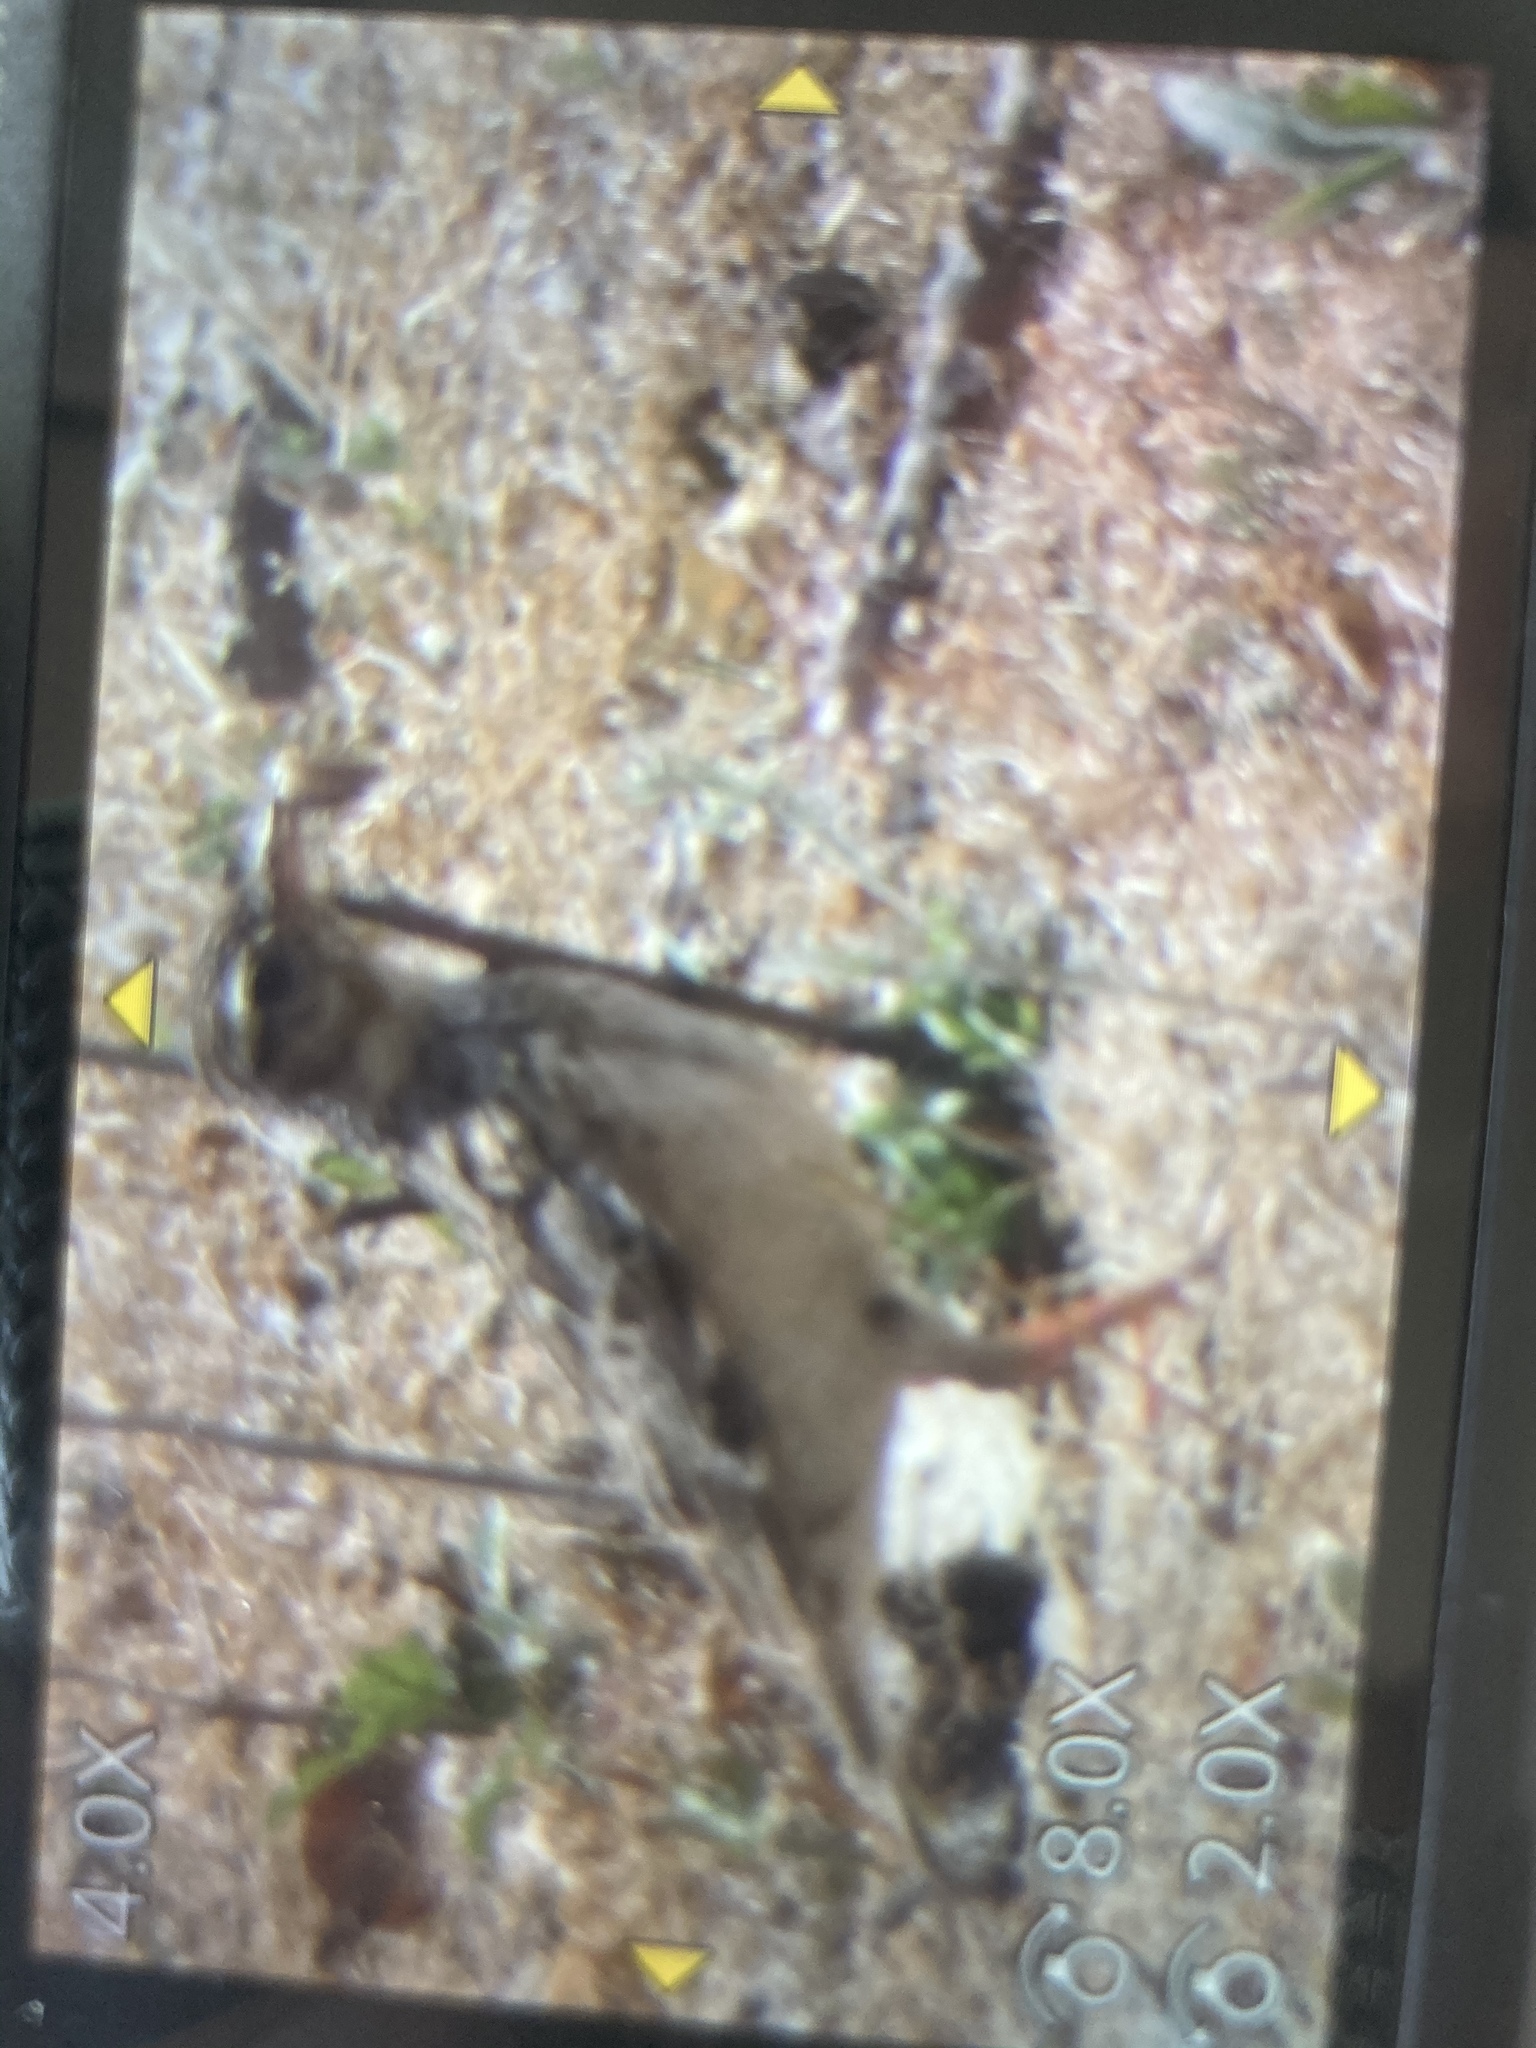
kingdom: Animalia
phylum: Chordata
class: Aves
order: Passeriformes
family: Alaudidae
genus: Lullula
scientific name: Lullula arborea
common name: Woodlark
